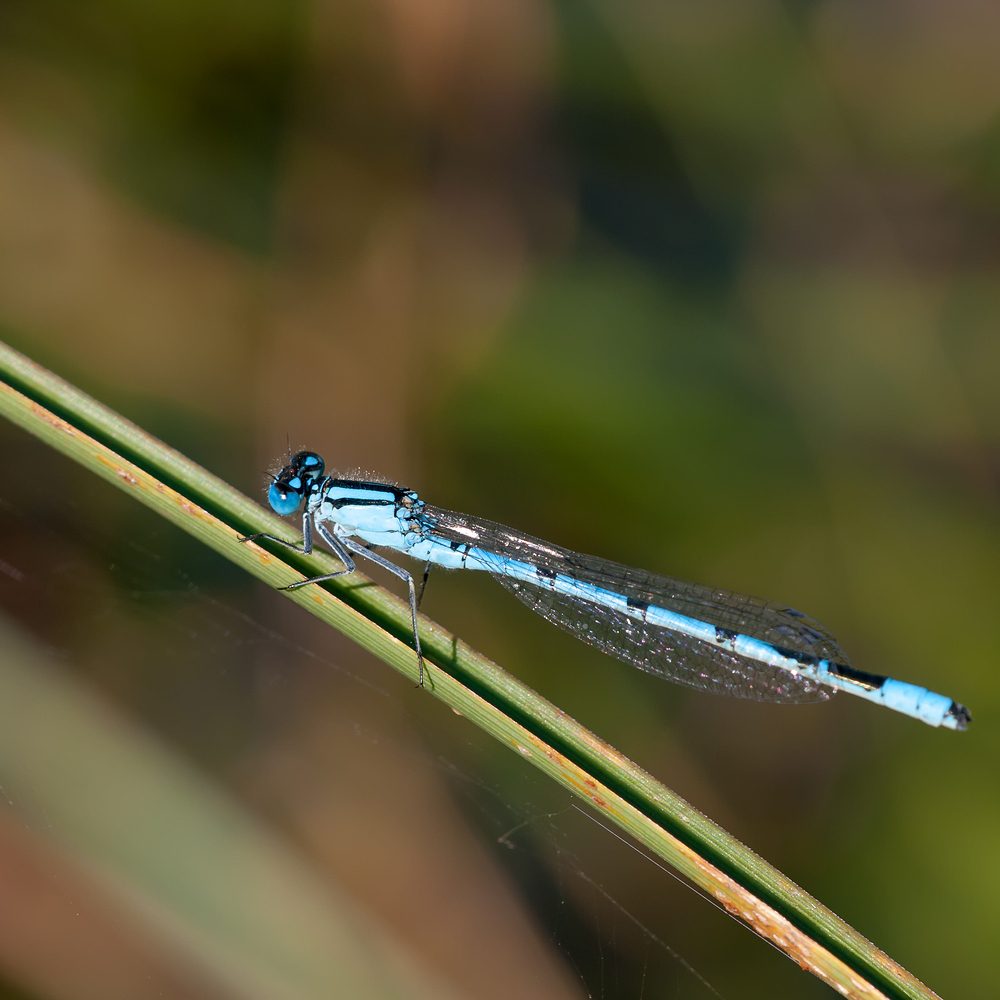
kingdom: Animalia
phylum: Arthropoda
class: Insecta
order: Odonata
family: Coenagrionidae
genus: Enallagma
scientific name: Enallagma cyathigerum
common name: Common blue damselfly
